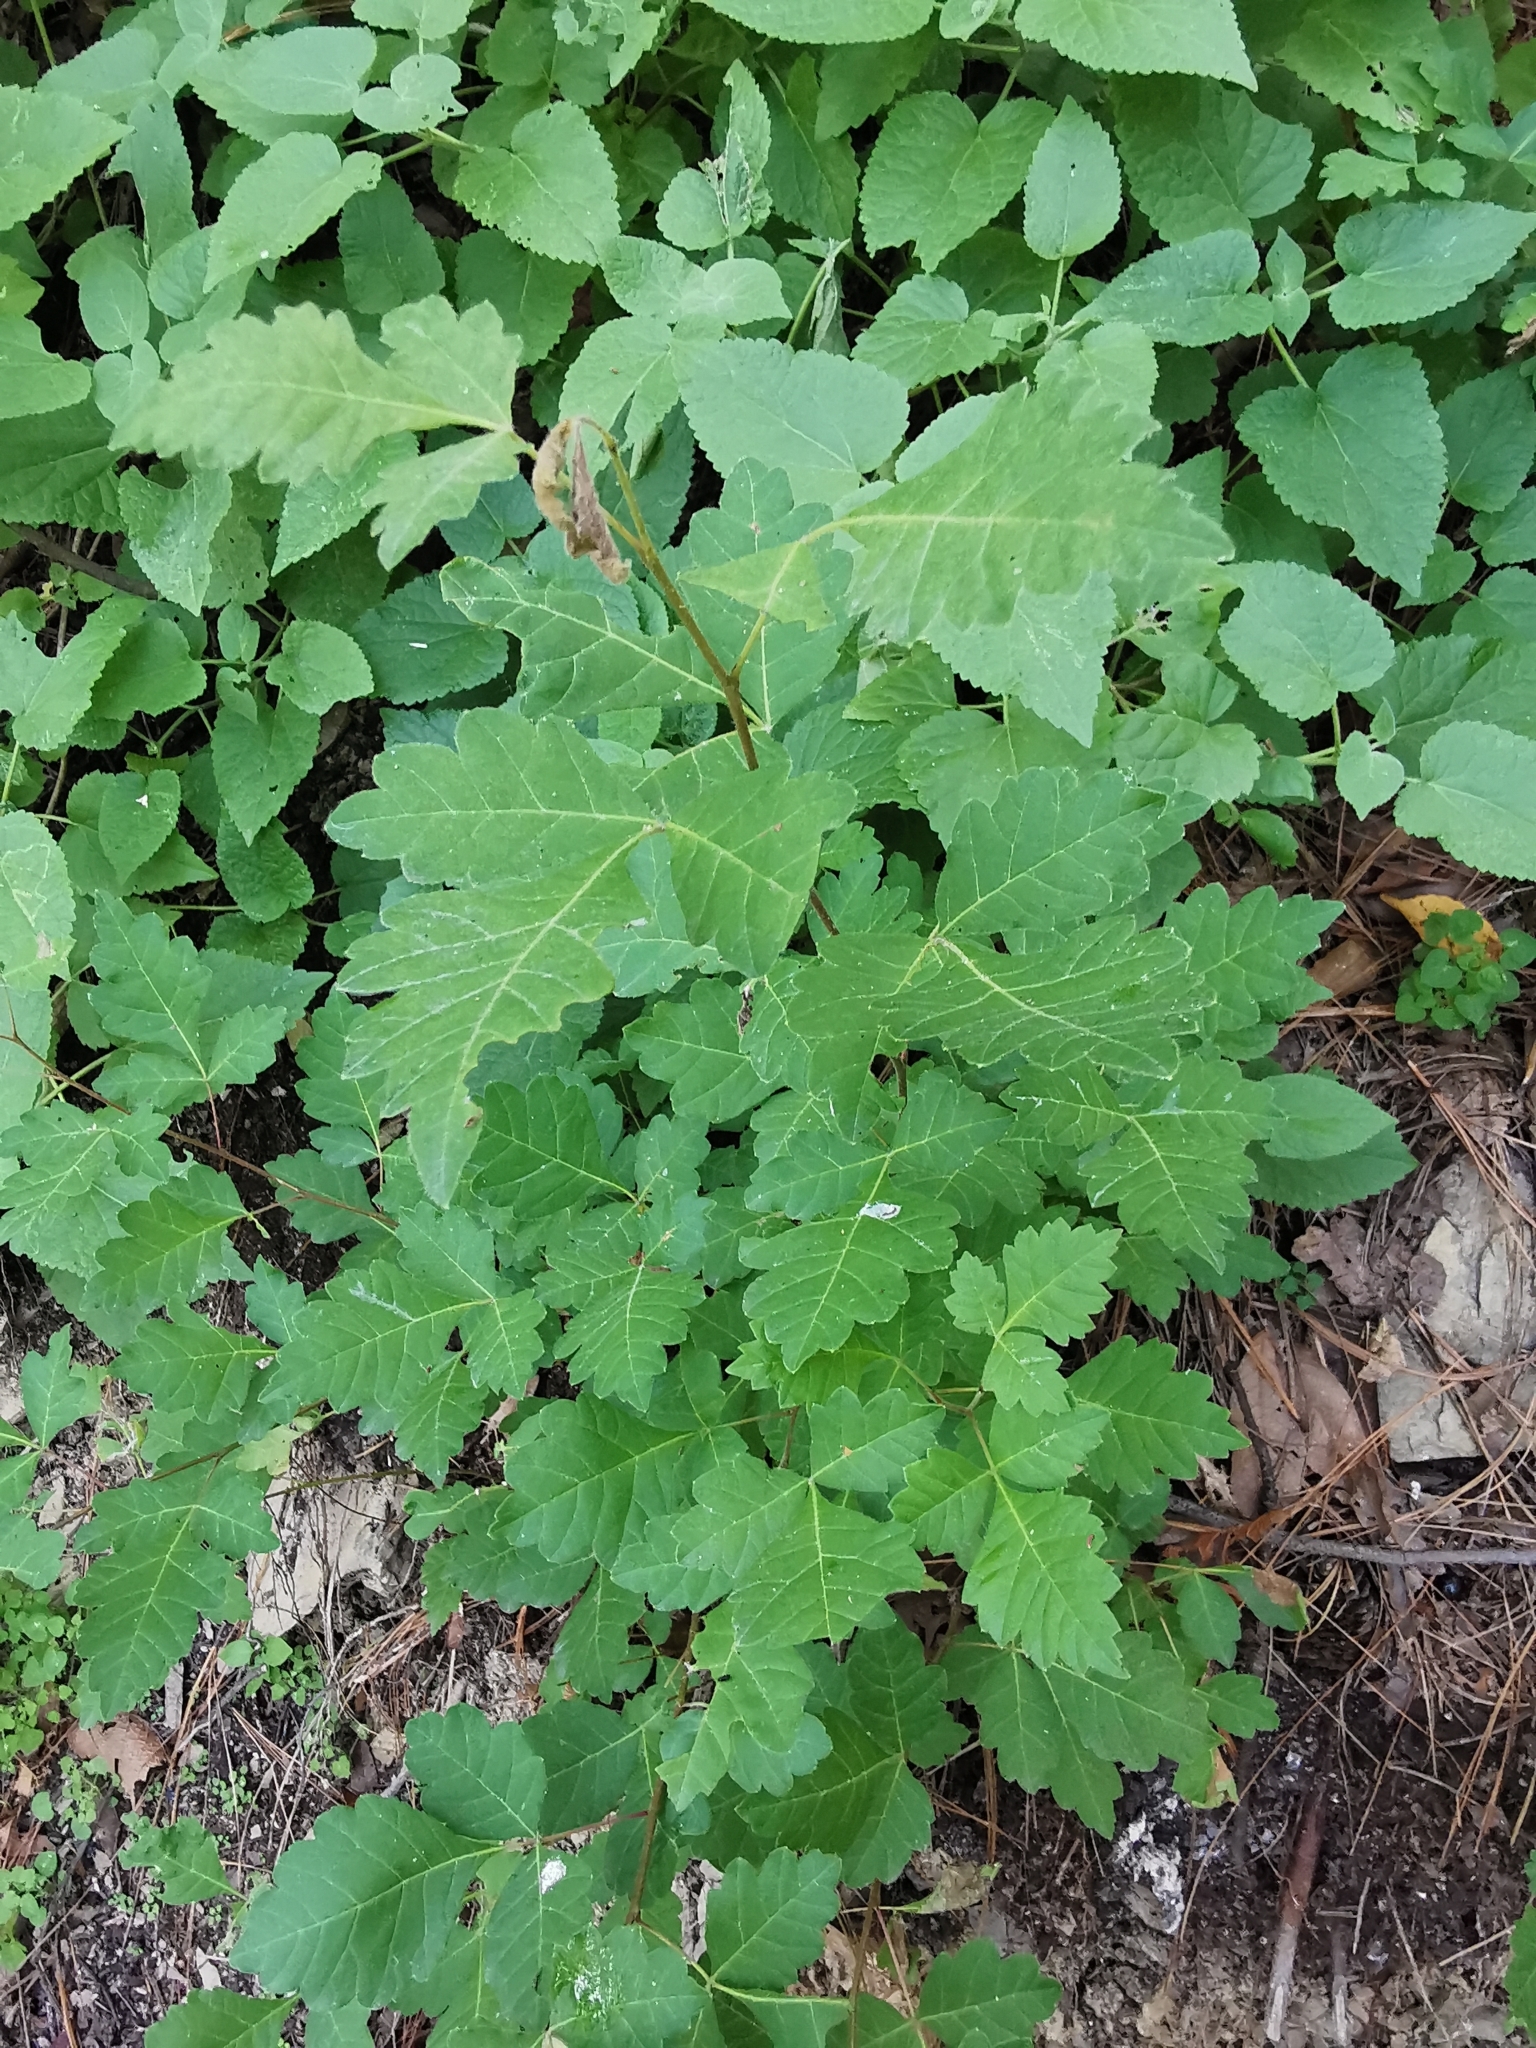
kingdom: Plantae
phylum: Tracheophyta
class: Magnoliopsida
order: Sapindales
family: Anacardiaceae
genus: Rhus
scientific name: Rhus aromatica
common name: Aromatic sumac
